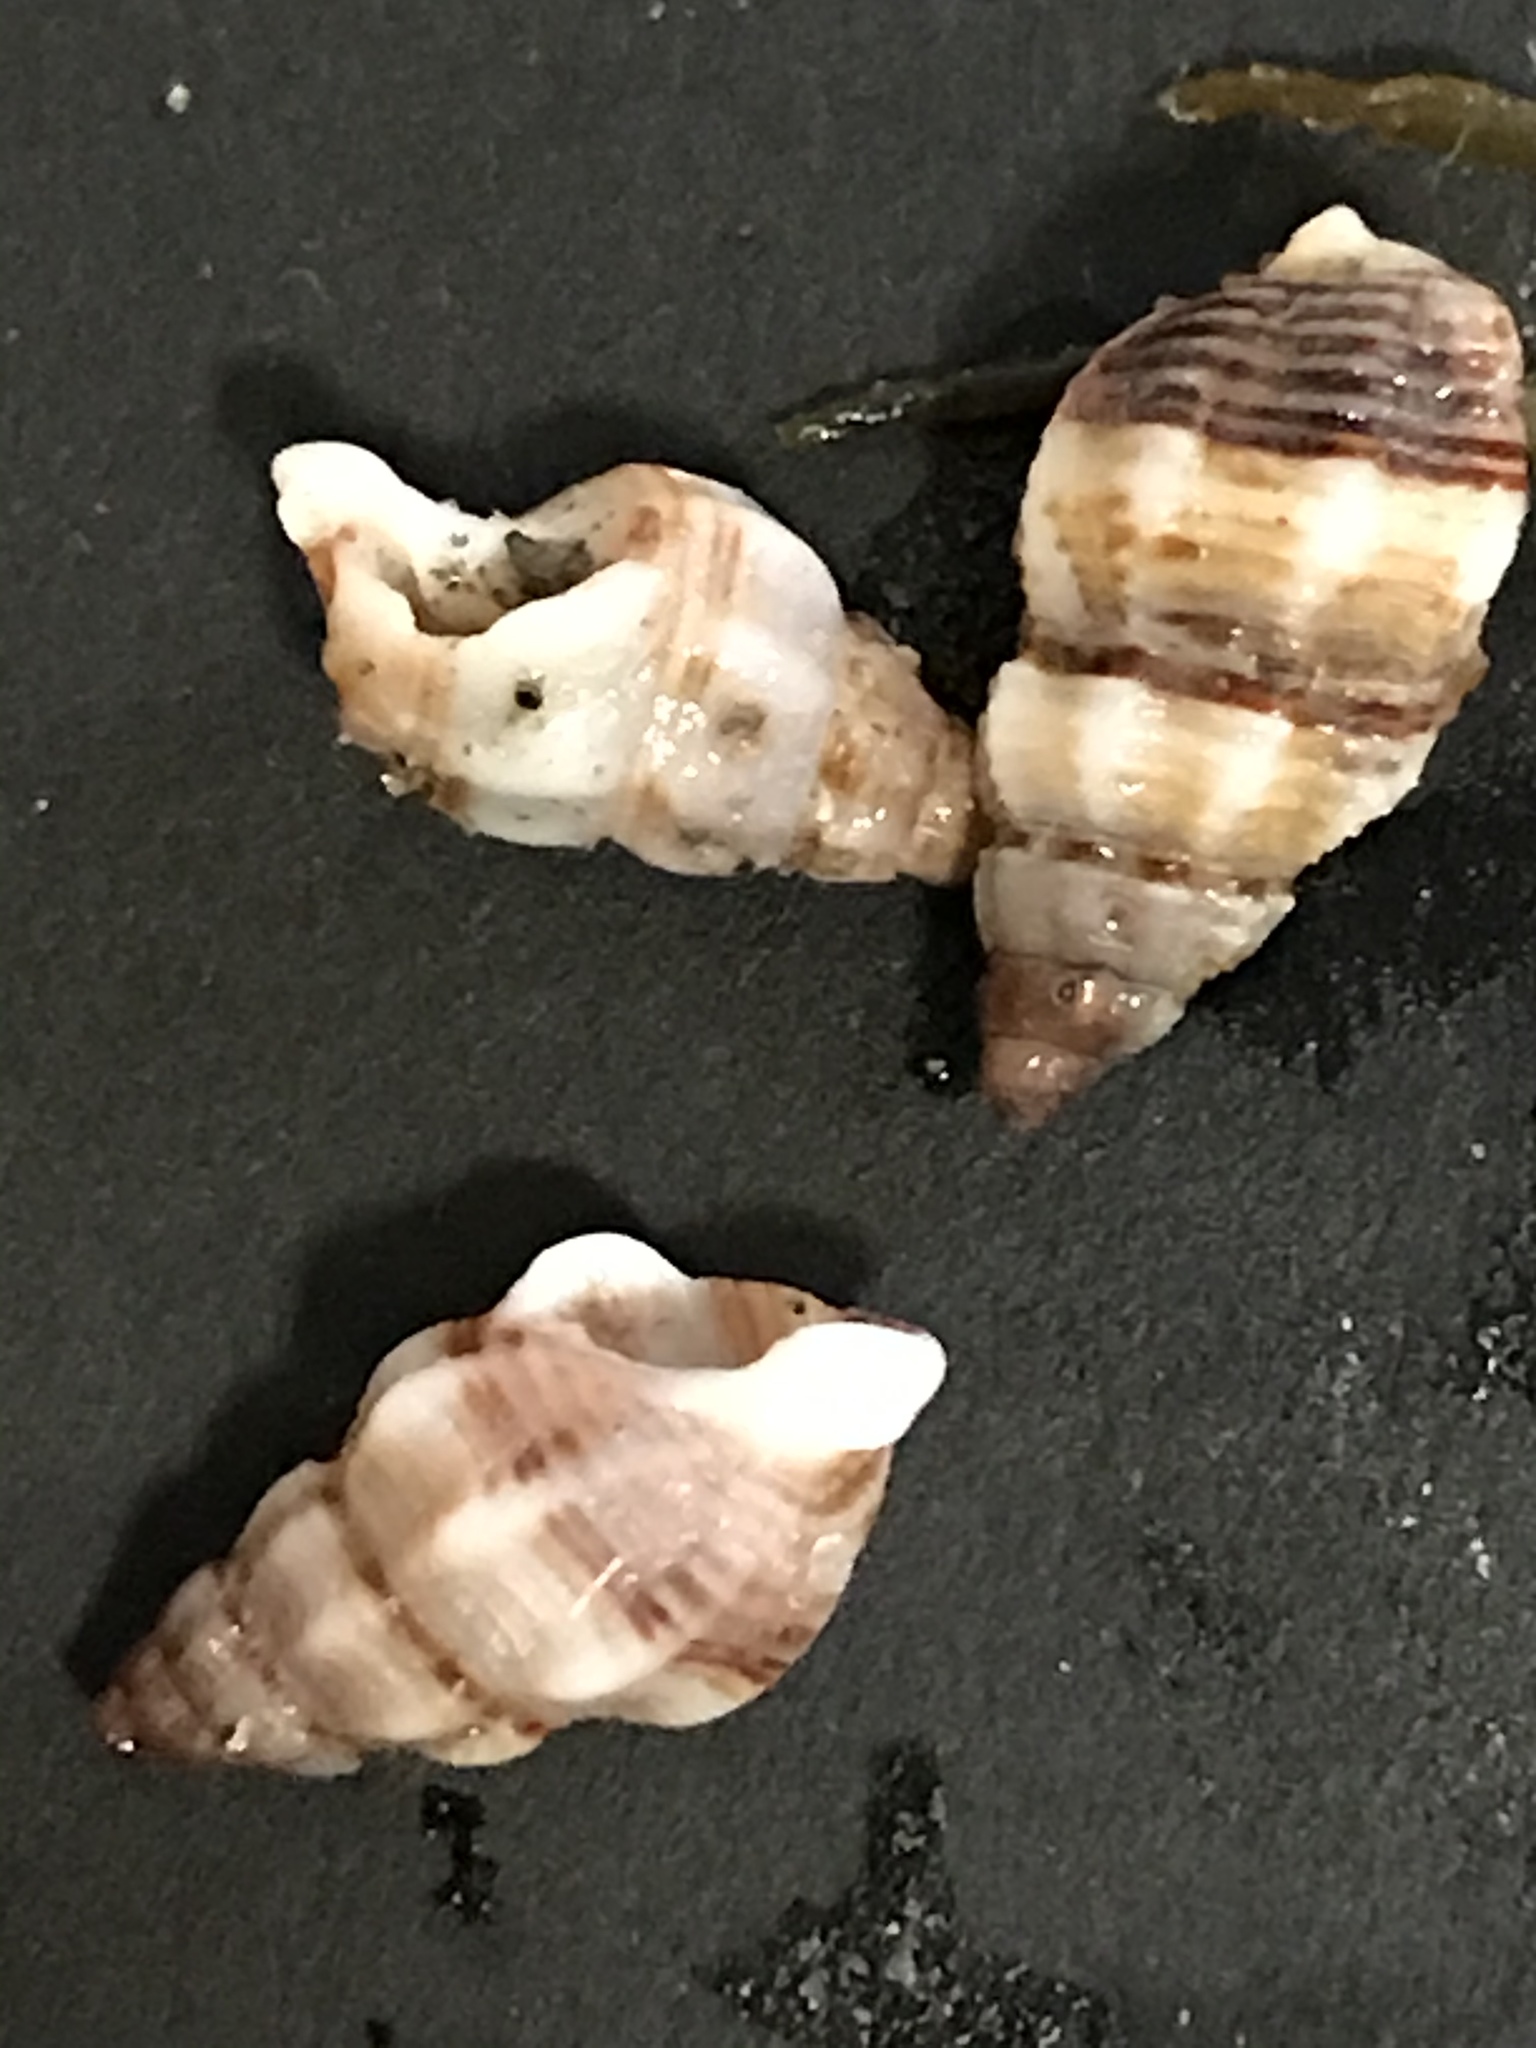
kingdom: Animalia
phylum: Mollusca
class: Gastropoda
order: Neogastropoda
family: Nassariidae
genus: Nassarius
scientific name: Nassarius mendicus
